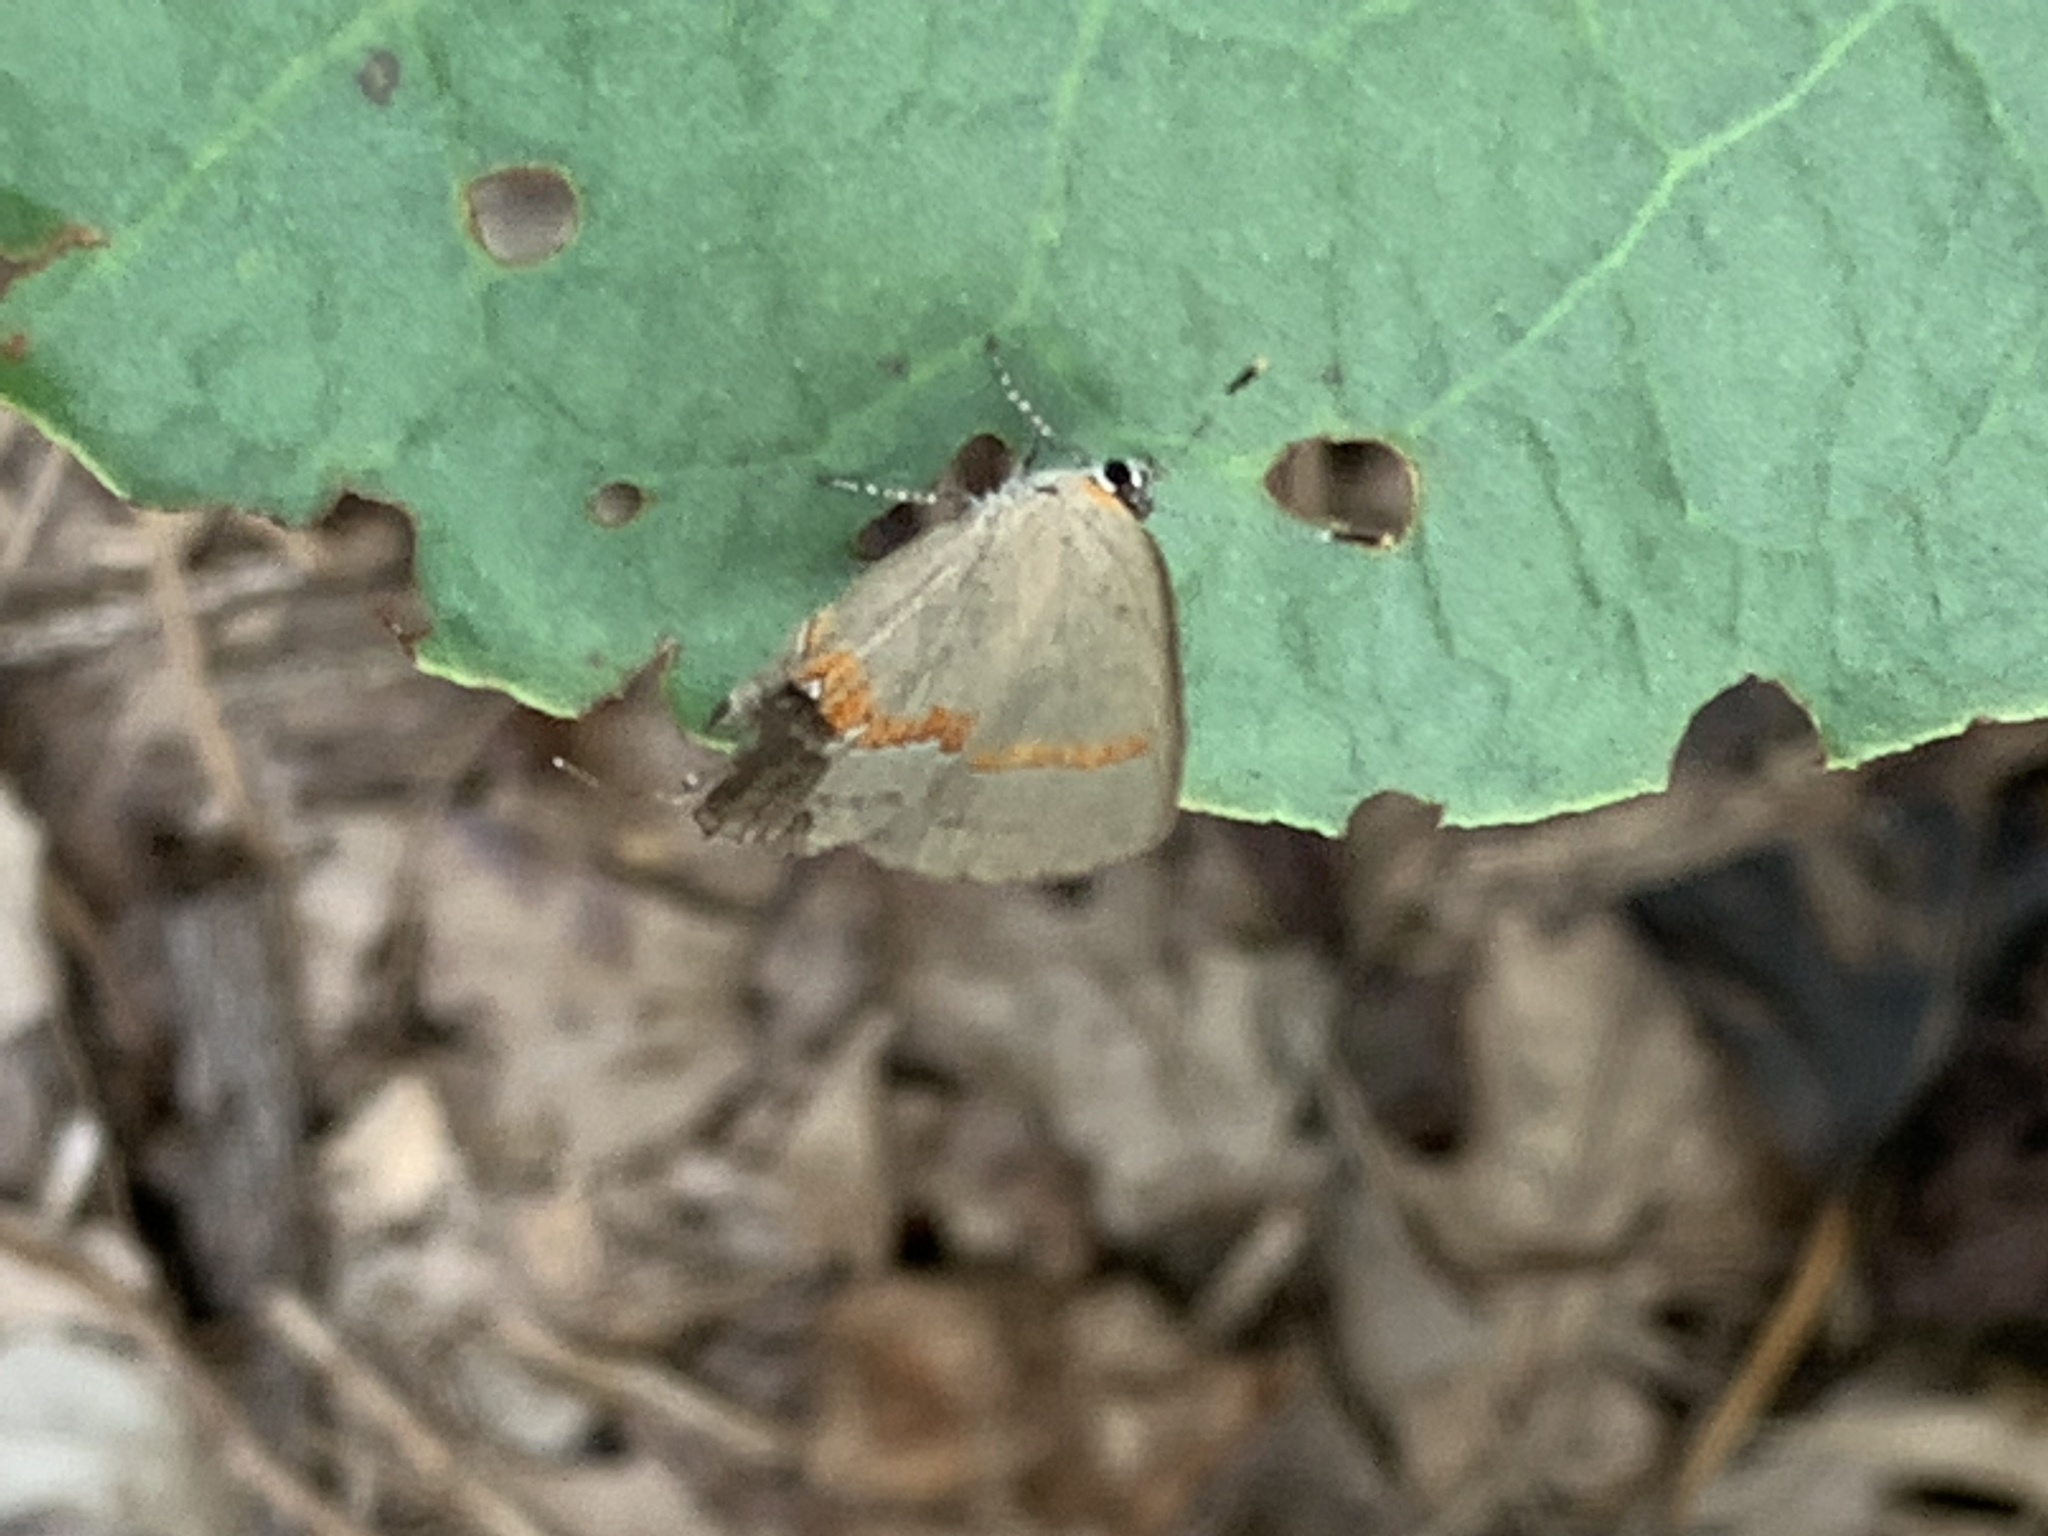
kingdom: Animalia
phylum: Arthropoda
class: Insecta
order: Lepidoptera
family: Lycaenidae
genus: Calycopis
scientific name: Calycopis cecrops
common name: Red-banded hairstreak
